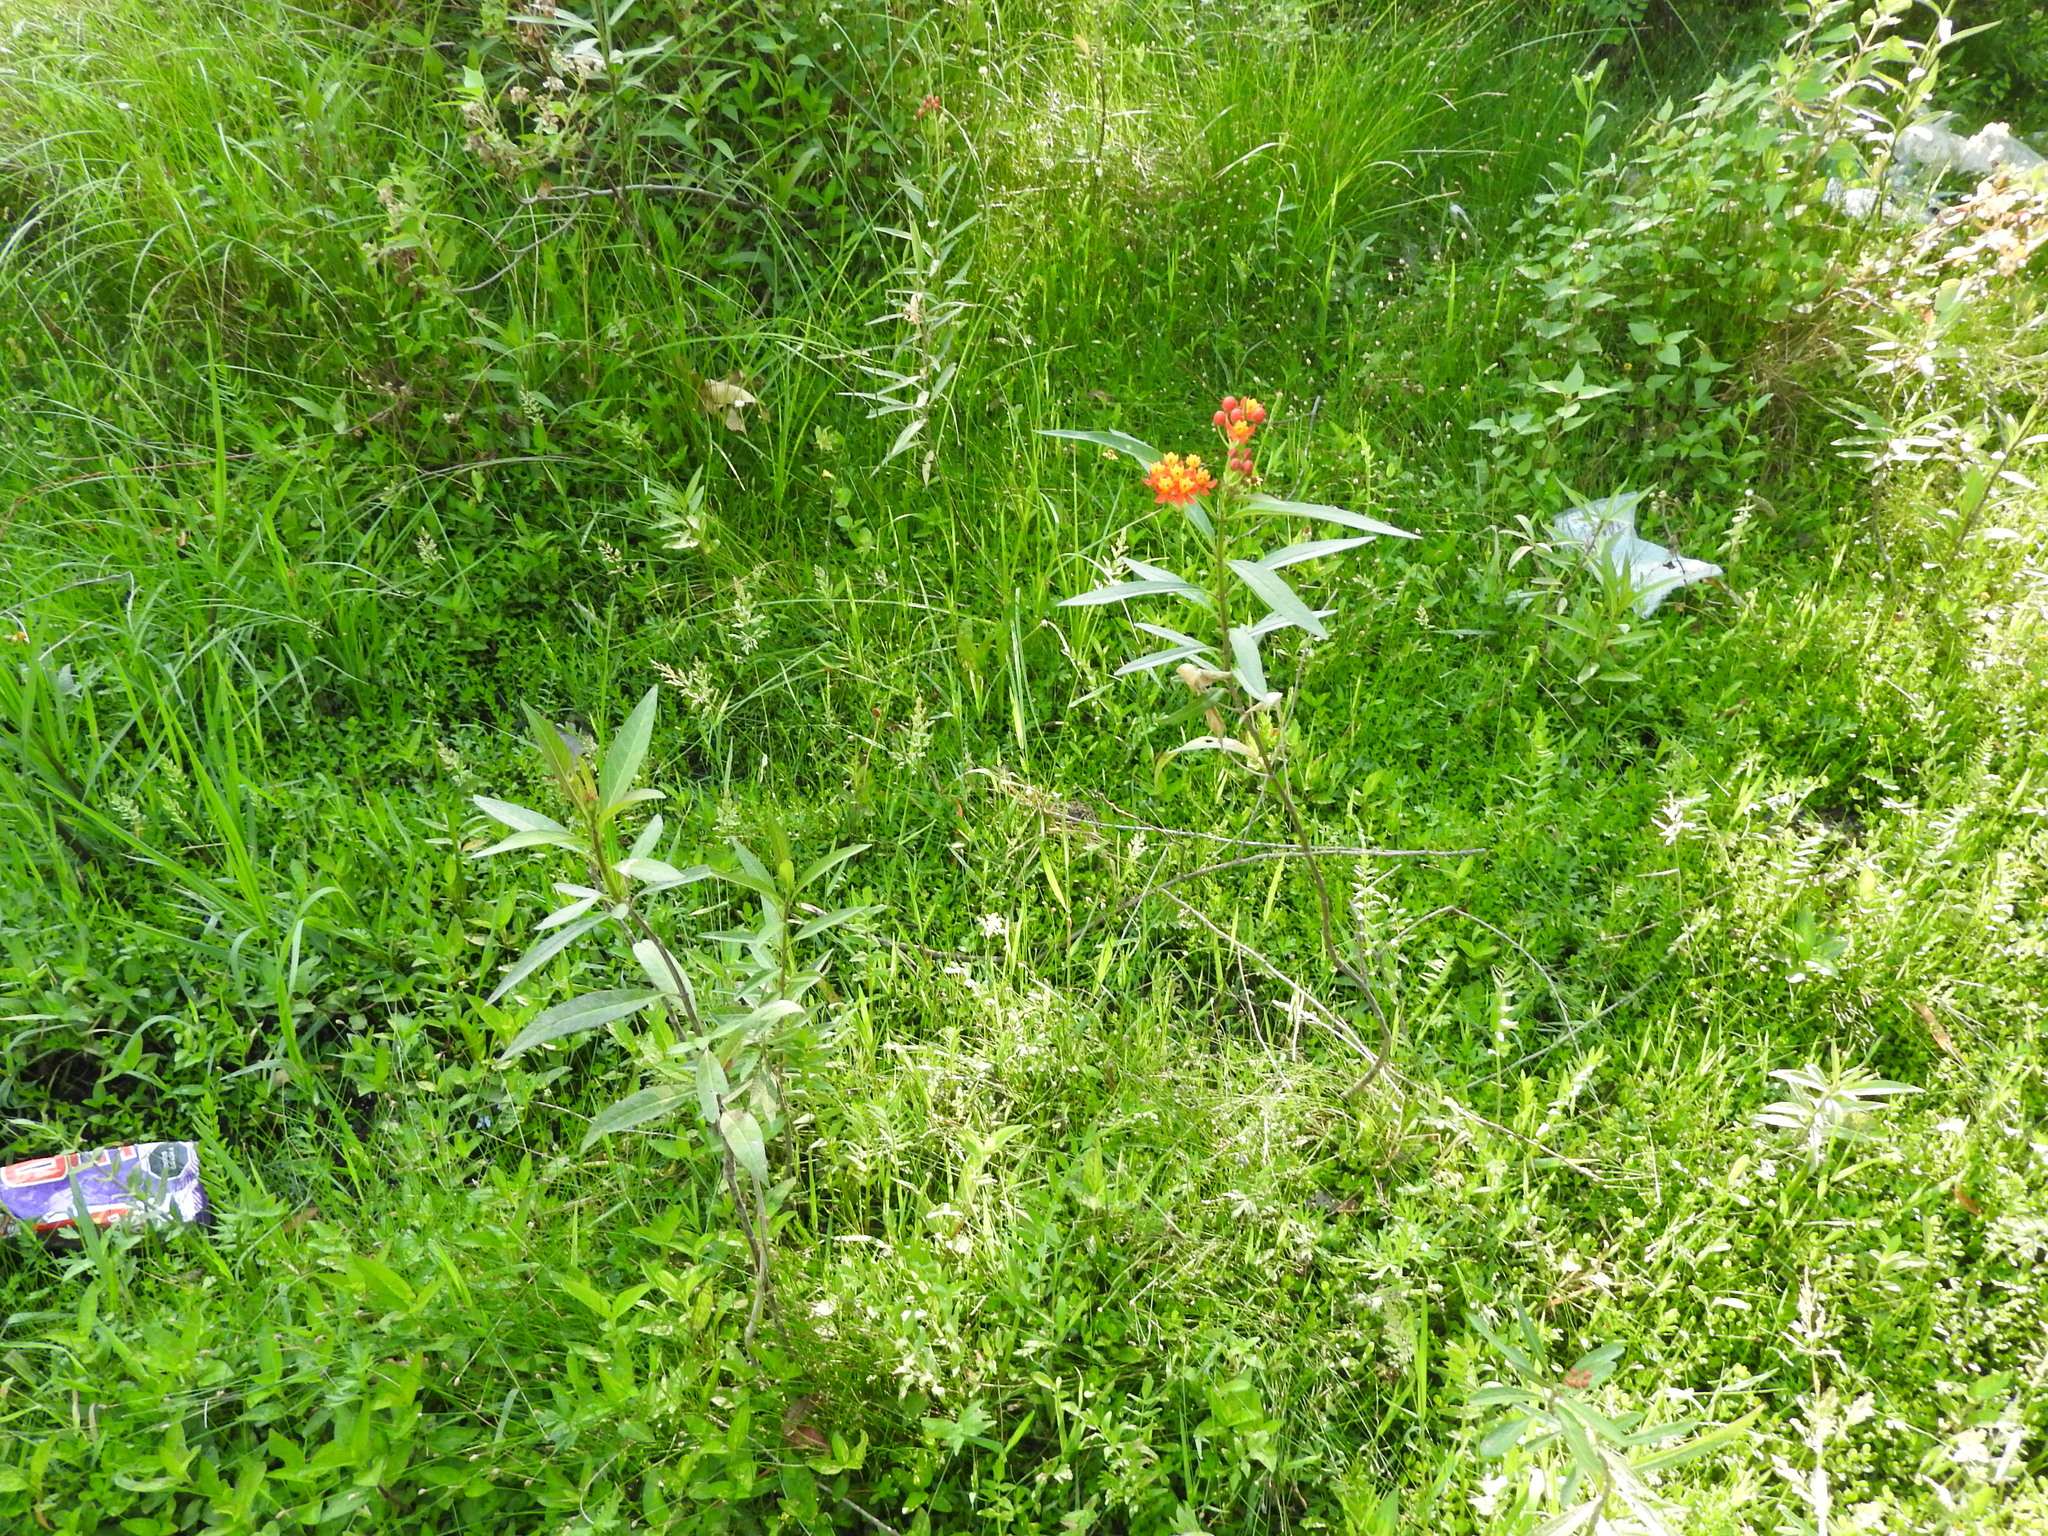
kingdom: Plantae
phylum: Tracheophyta
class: Magnoliopsida
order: Gentianales
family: Apocynaceae
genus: Asclepias
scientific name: Asclepias curassavica
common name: Bloodflower
